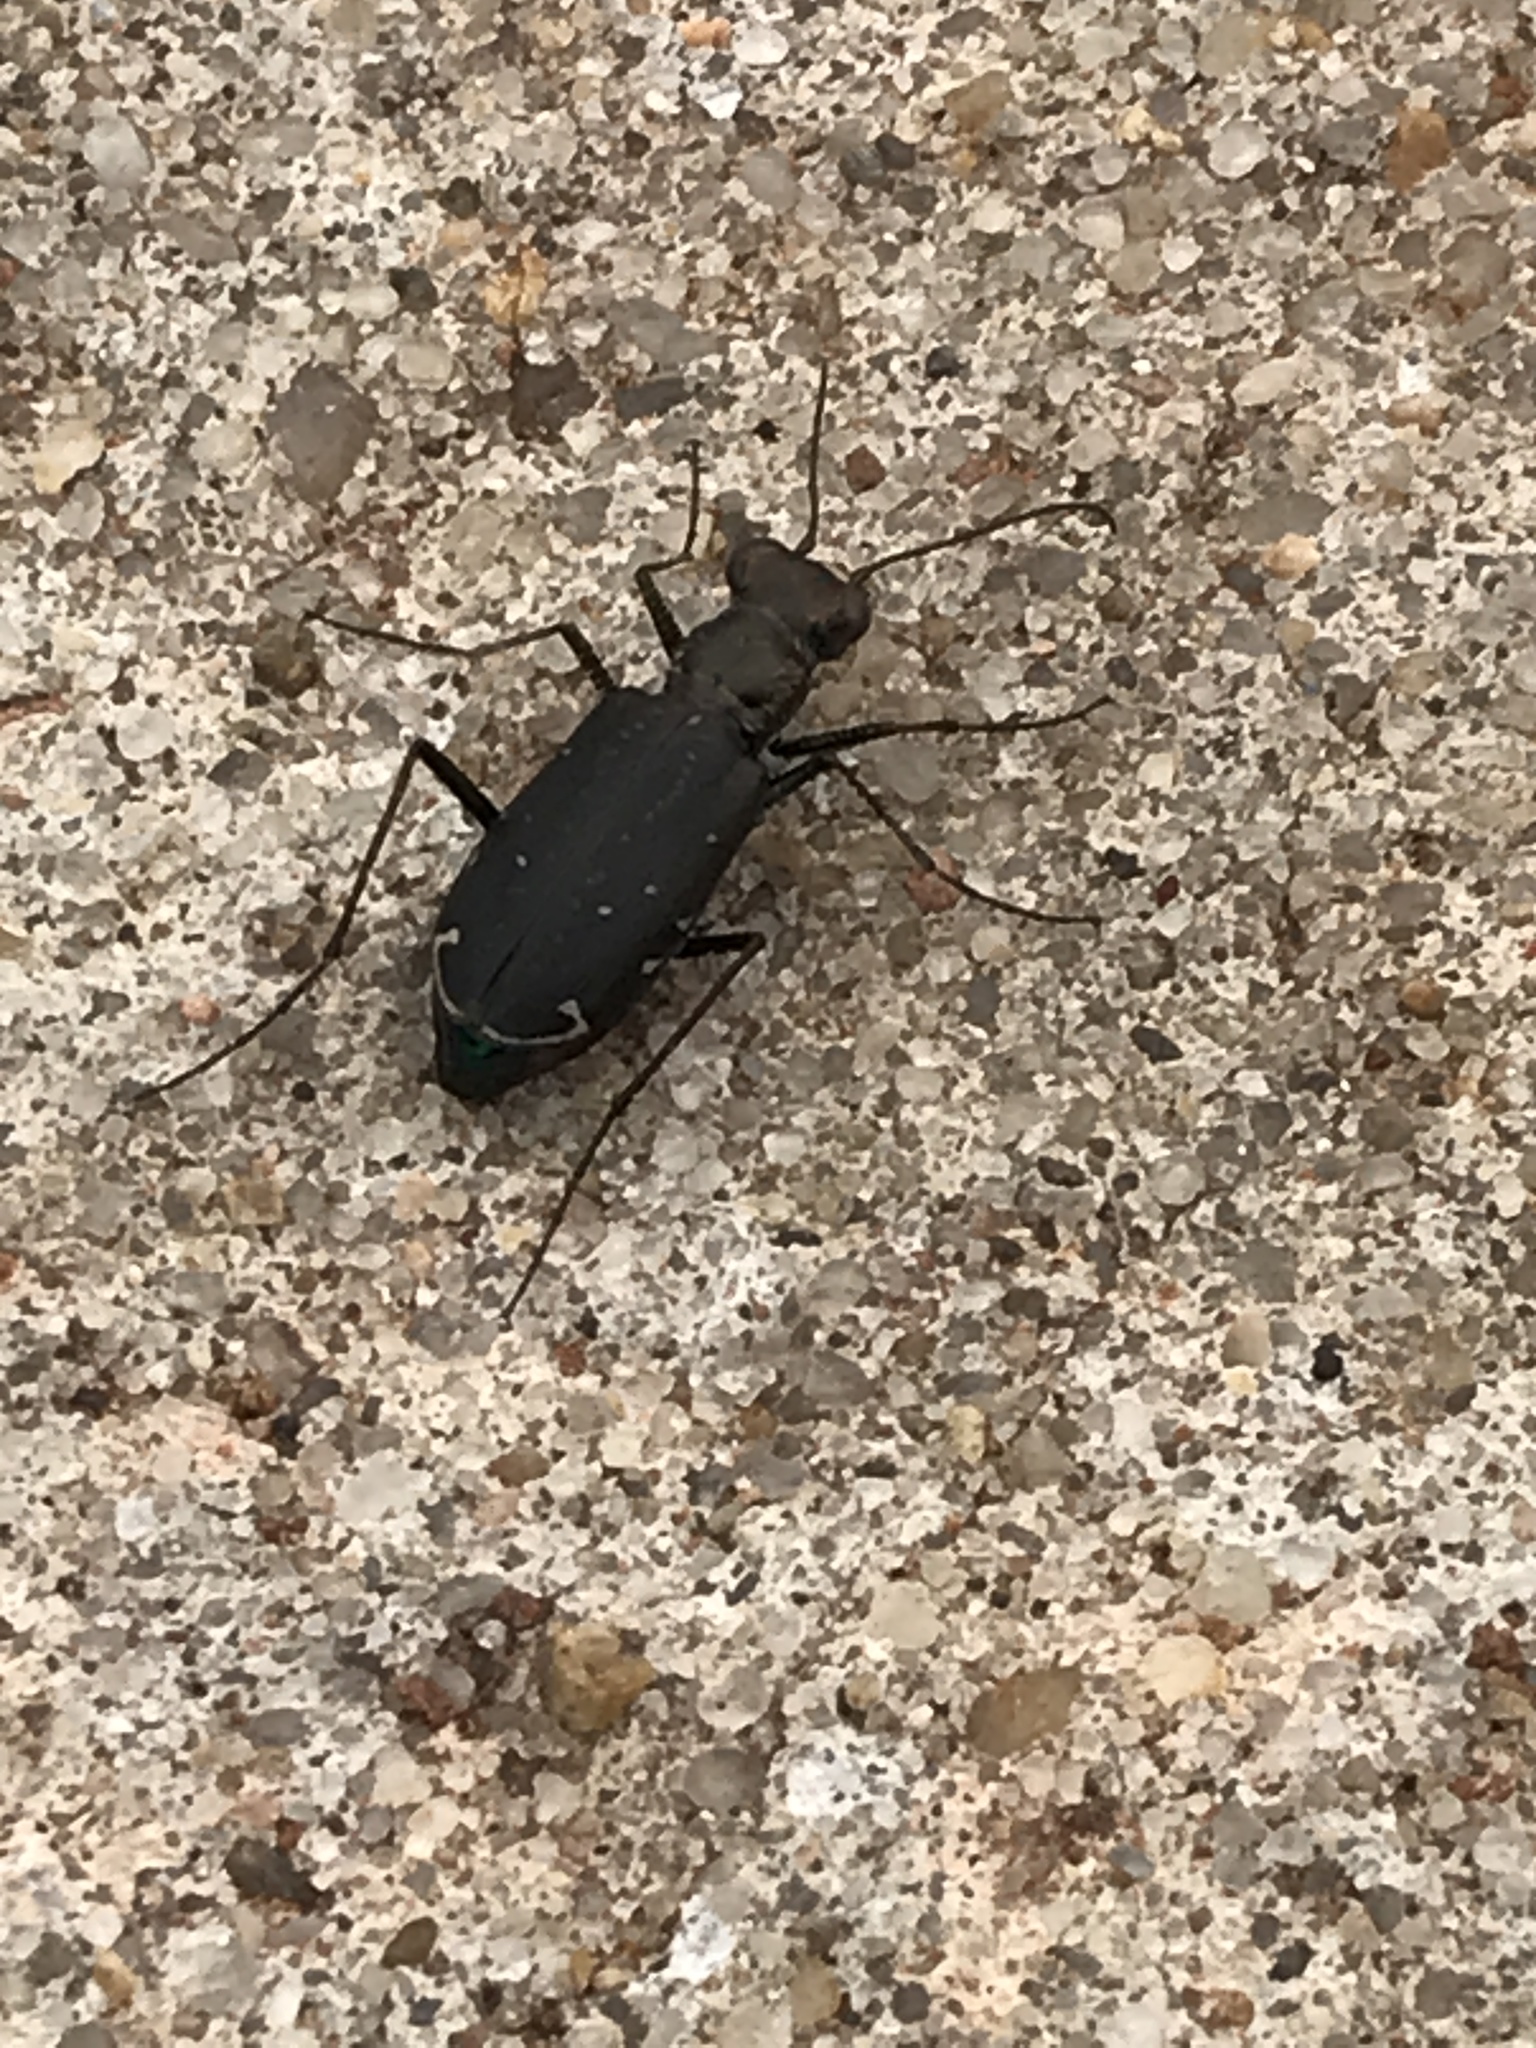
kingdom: Animalia
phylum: Arthropoda
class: Insecta
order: Coleoptera
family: Carabidae
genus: Cicindela
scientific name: Cicindela punctulata
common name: Punctured tiger beetle
